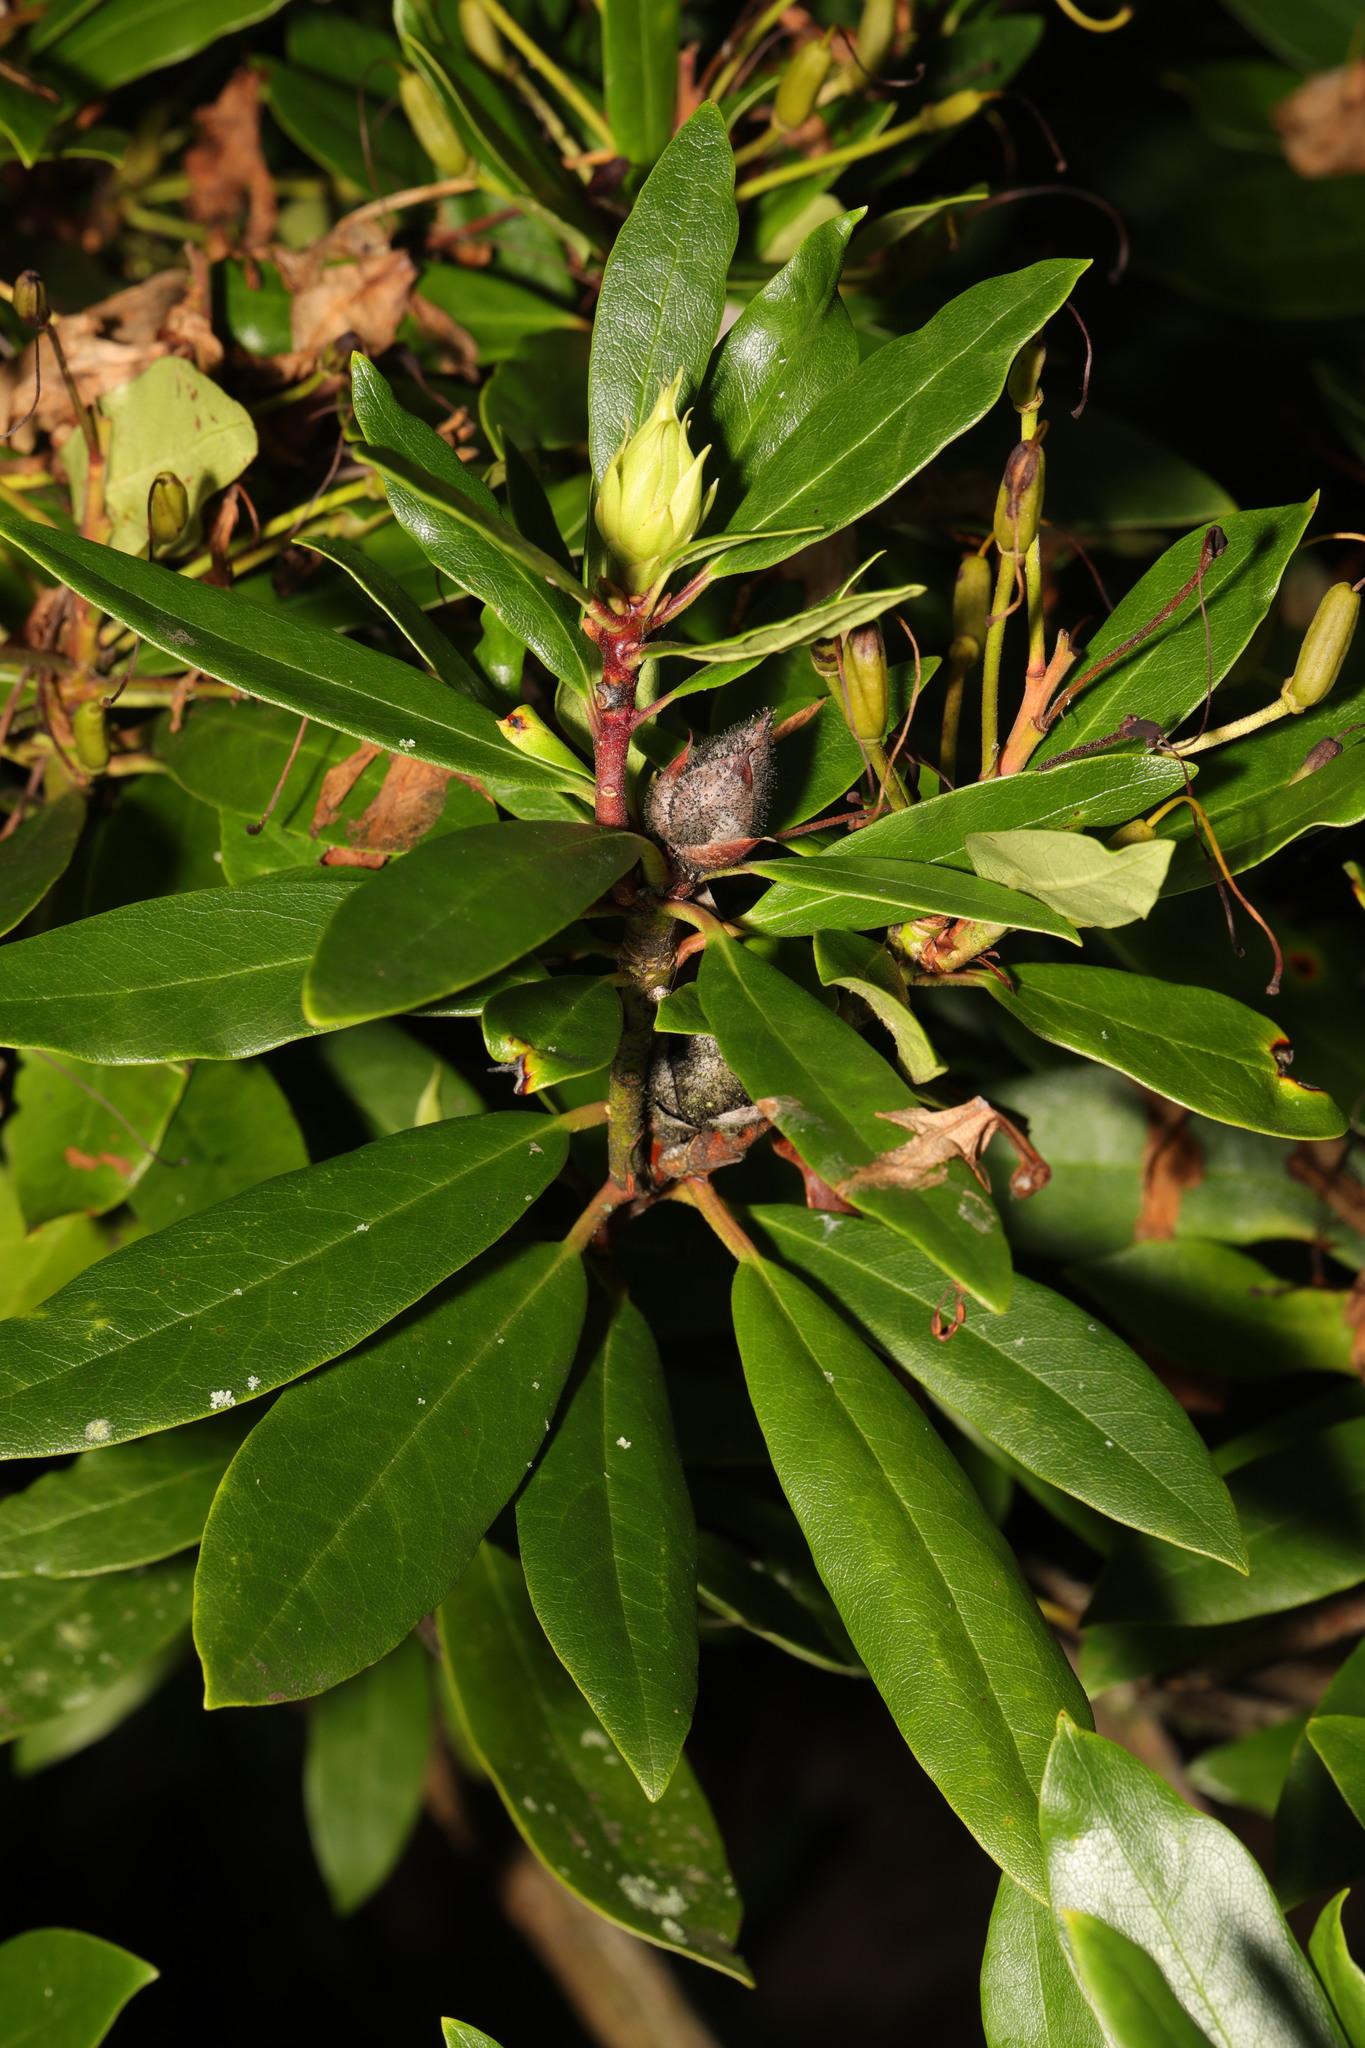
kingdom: Plantae
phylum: Tracheophyta
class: Magnoliopsida
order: Ericales
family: Ericaceae
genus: Rhododendron
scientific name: Rhododendron ponticum
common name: Rhododendron
